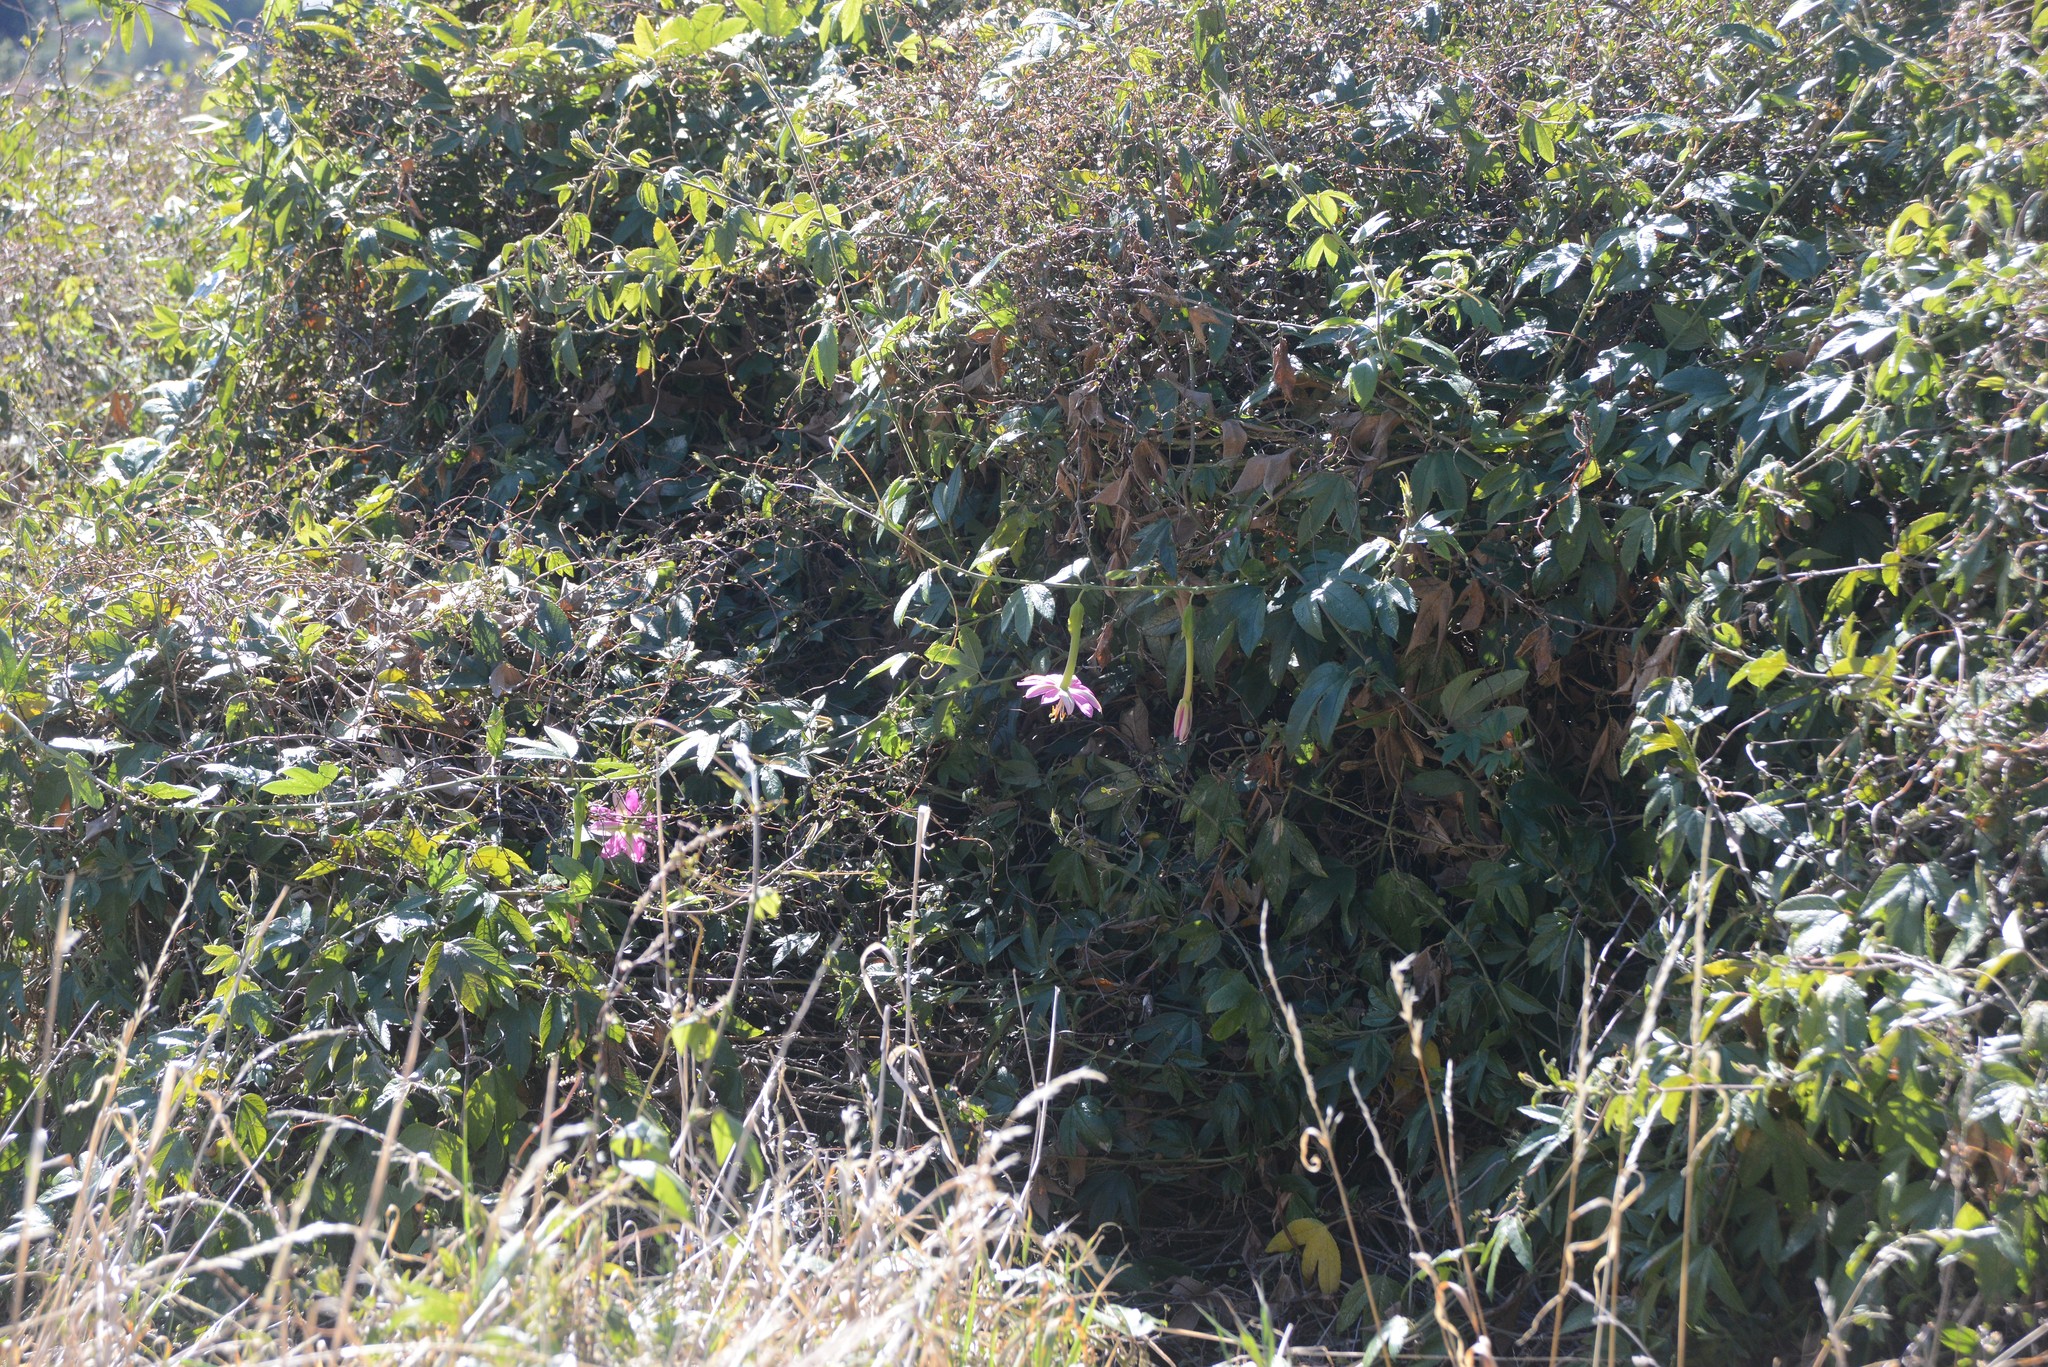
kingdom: Plantae
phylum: Tracheophyta
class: Magnoliopsida
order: Malpighiales
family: Passifloraceae
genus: Passiflora
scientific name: Passiflora tarminiana
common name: Banana poka
